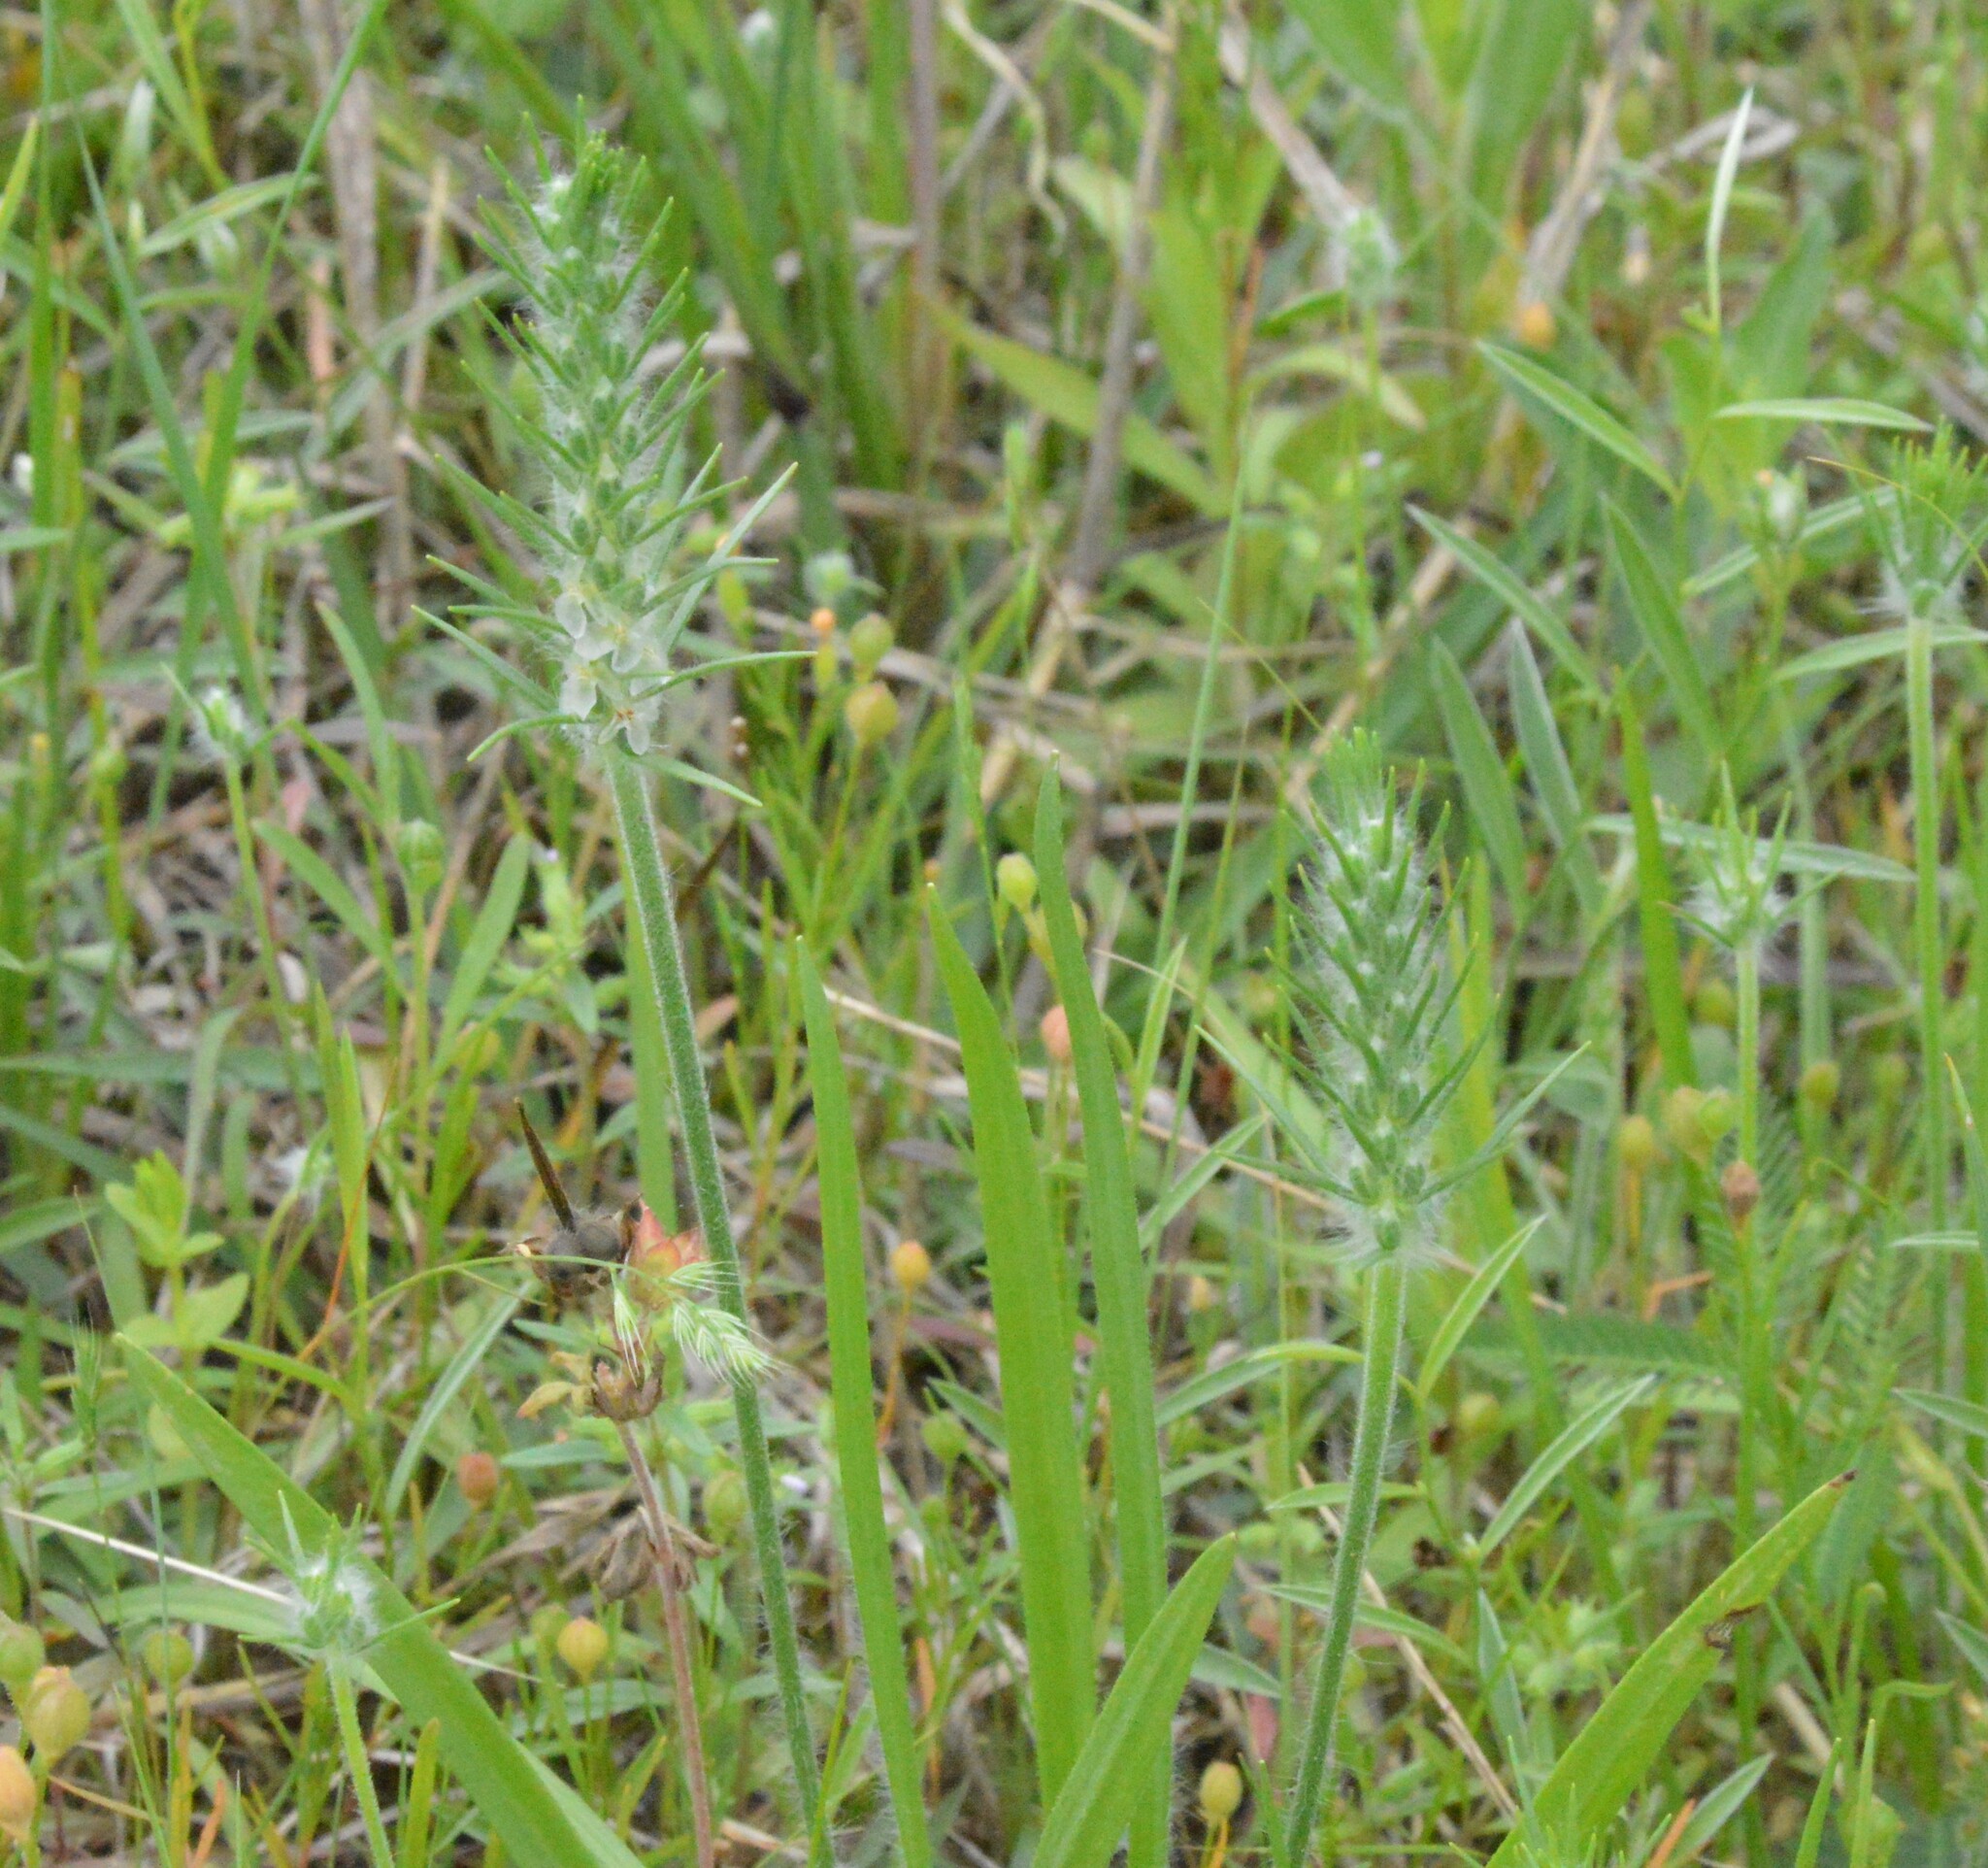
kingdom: Plantae
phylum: Tracheophyta
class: Magnoliopsida
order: Lamiales
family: Plantaginaceae
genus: Plantago
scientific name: Plantago aristata
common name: Bracted plantain
